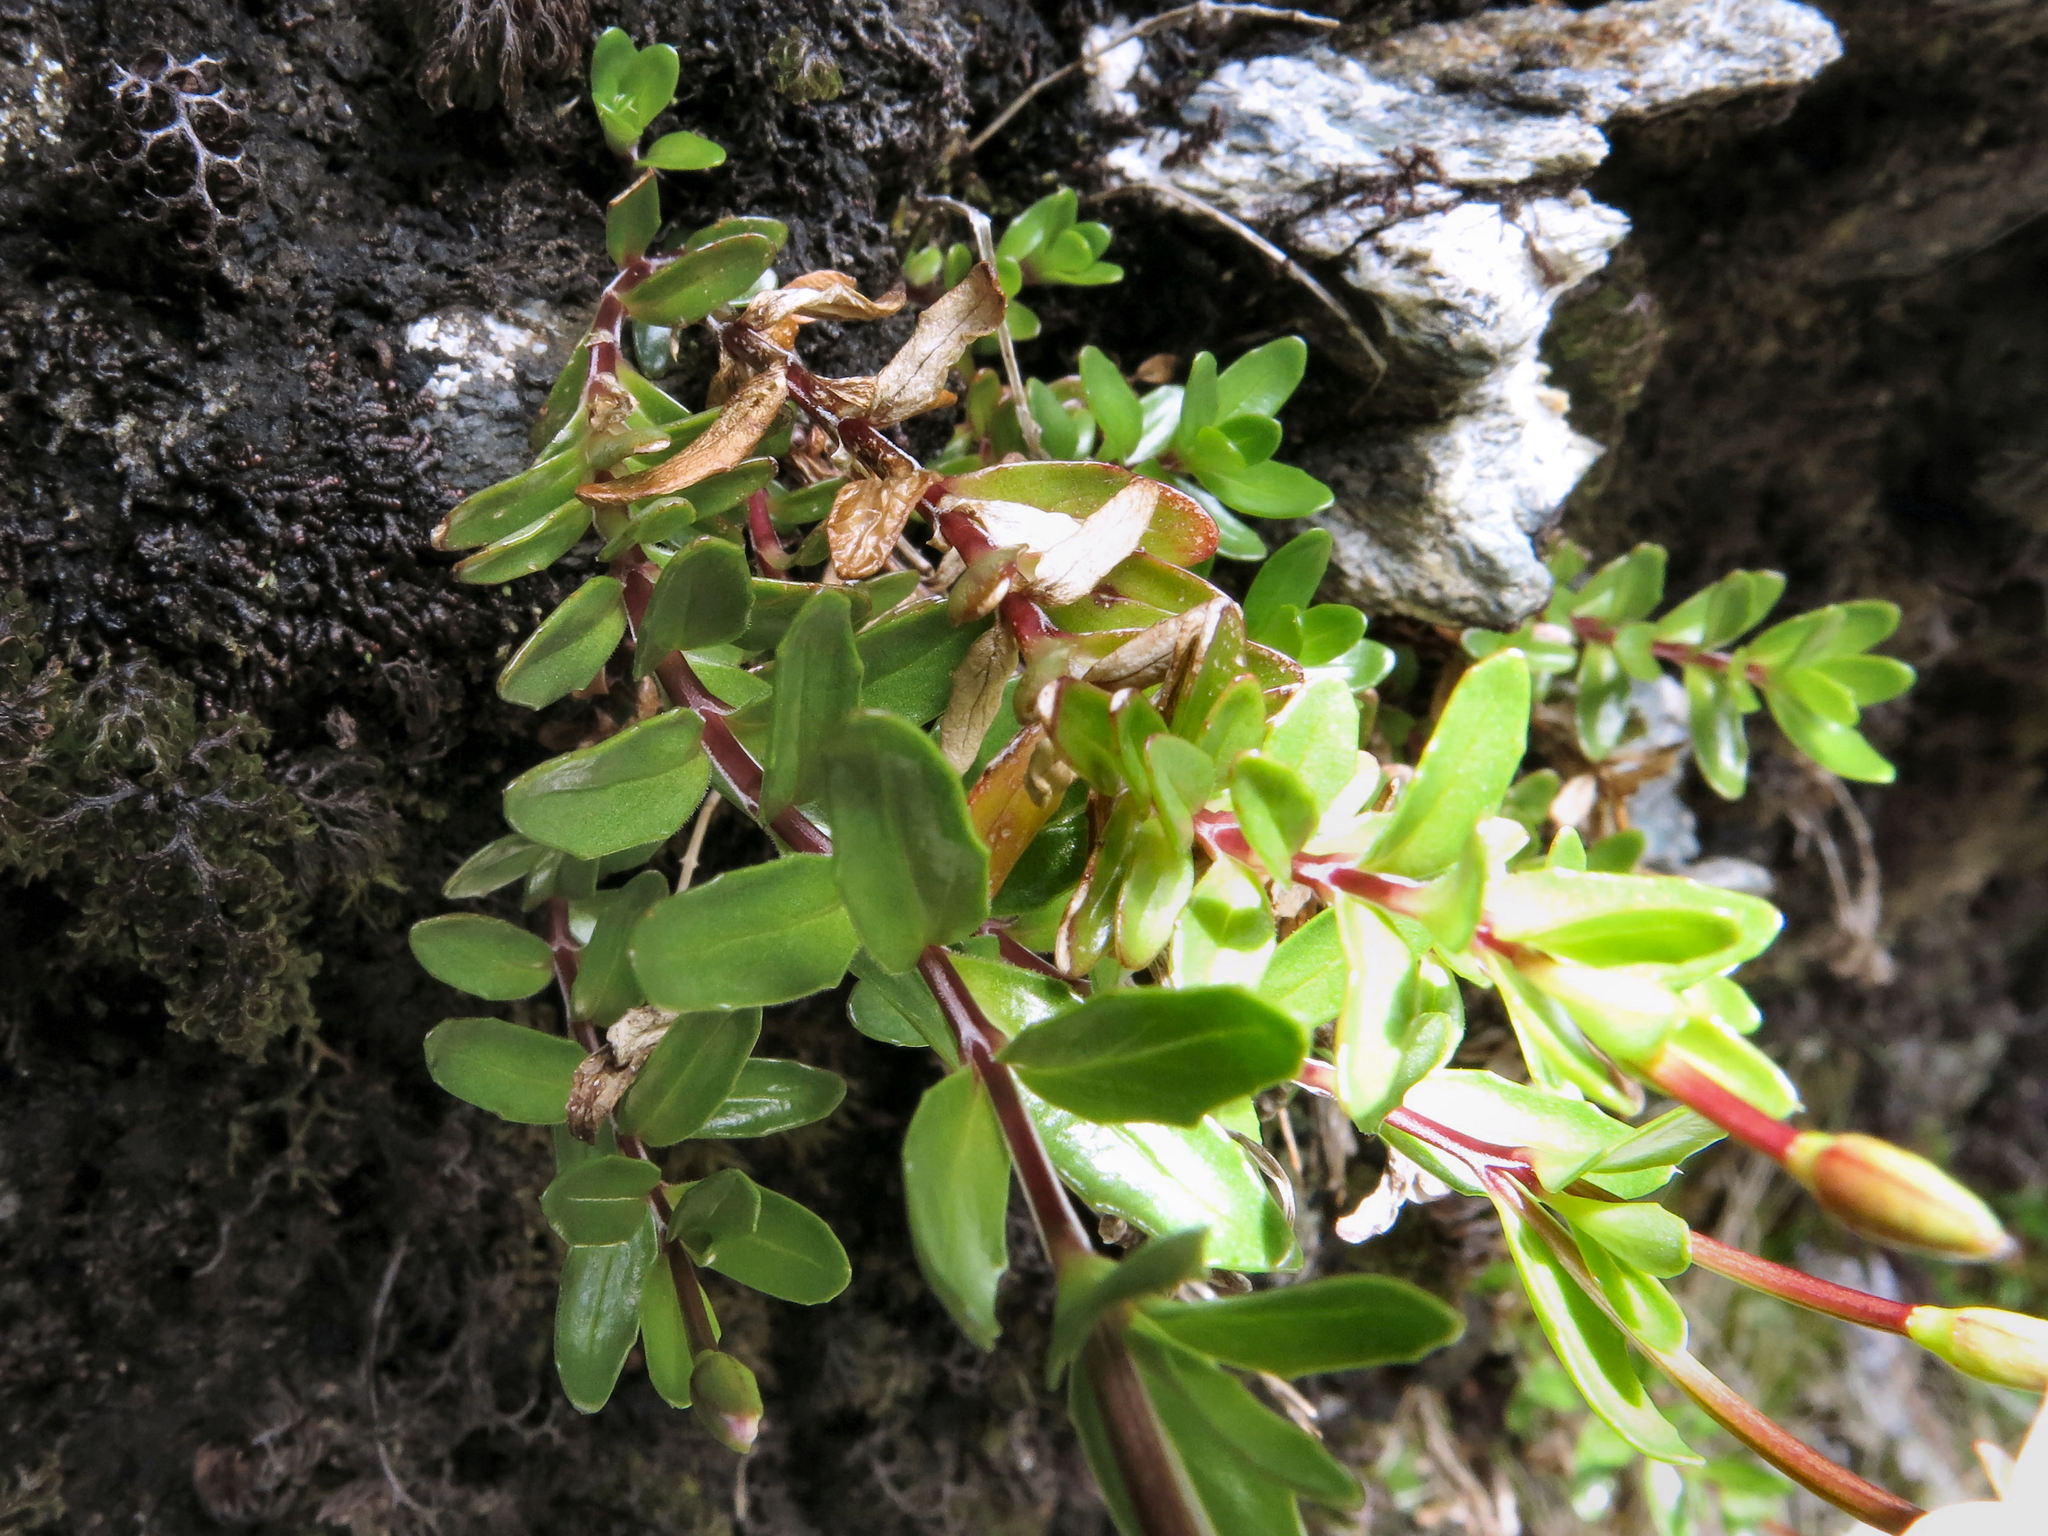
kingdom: Plantae
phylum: Tracheophyta
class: Magnoliopsida
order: Myrtales
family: Onagraceae
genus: Epilobium
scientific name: Epilobium glabellum
